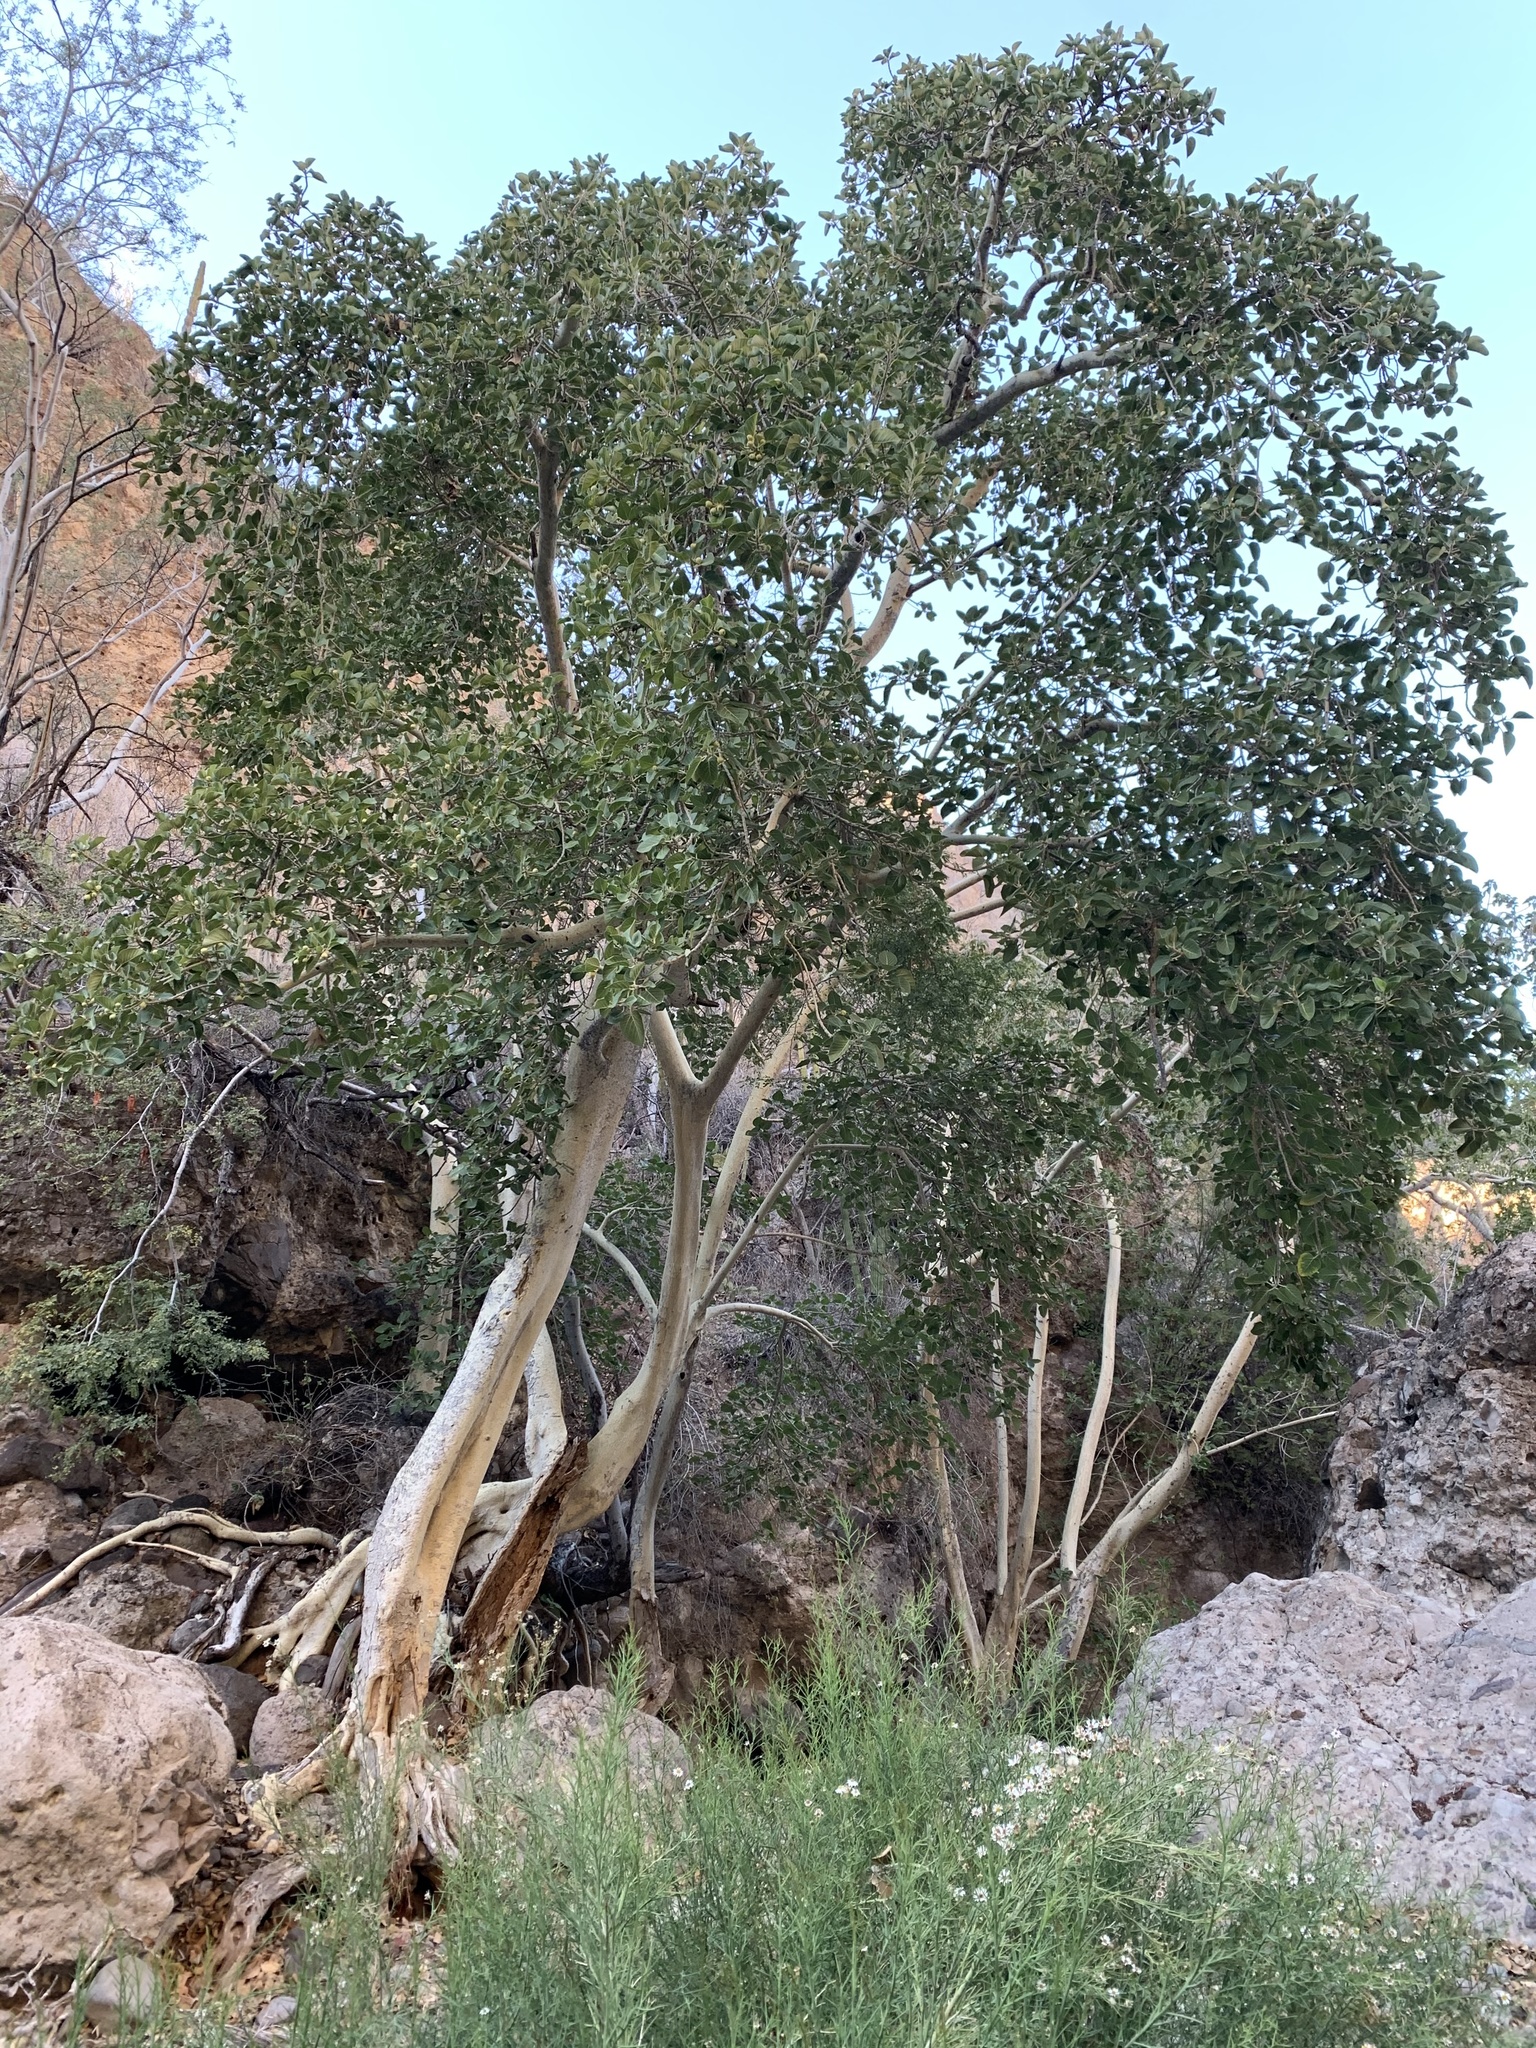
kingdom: Plantae
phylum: Tracheophyta
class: Magnoliopsida
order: Rosales
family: Moraceae
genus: Ficus
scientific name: Ficus petiolaris
